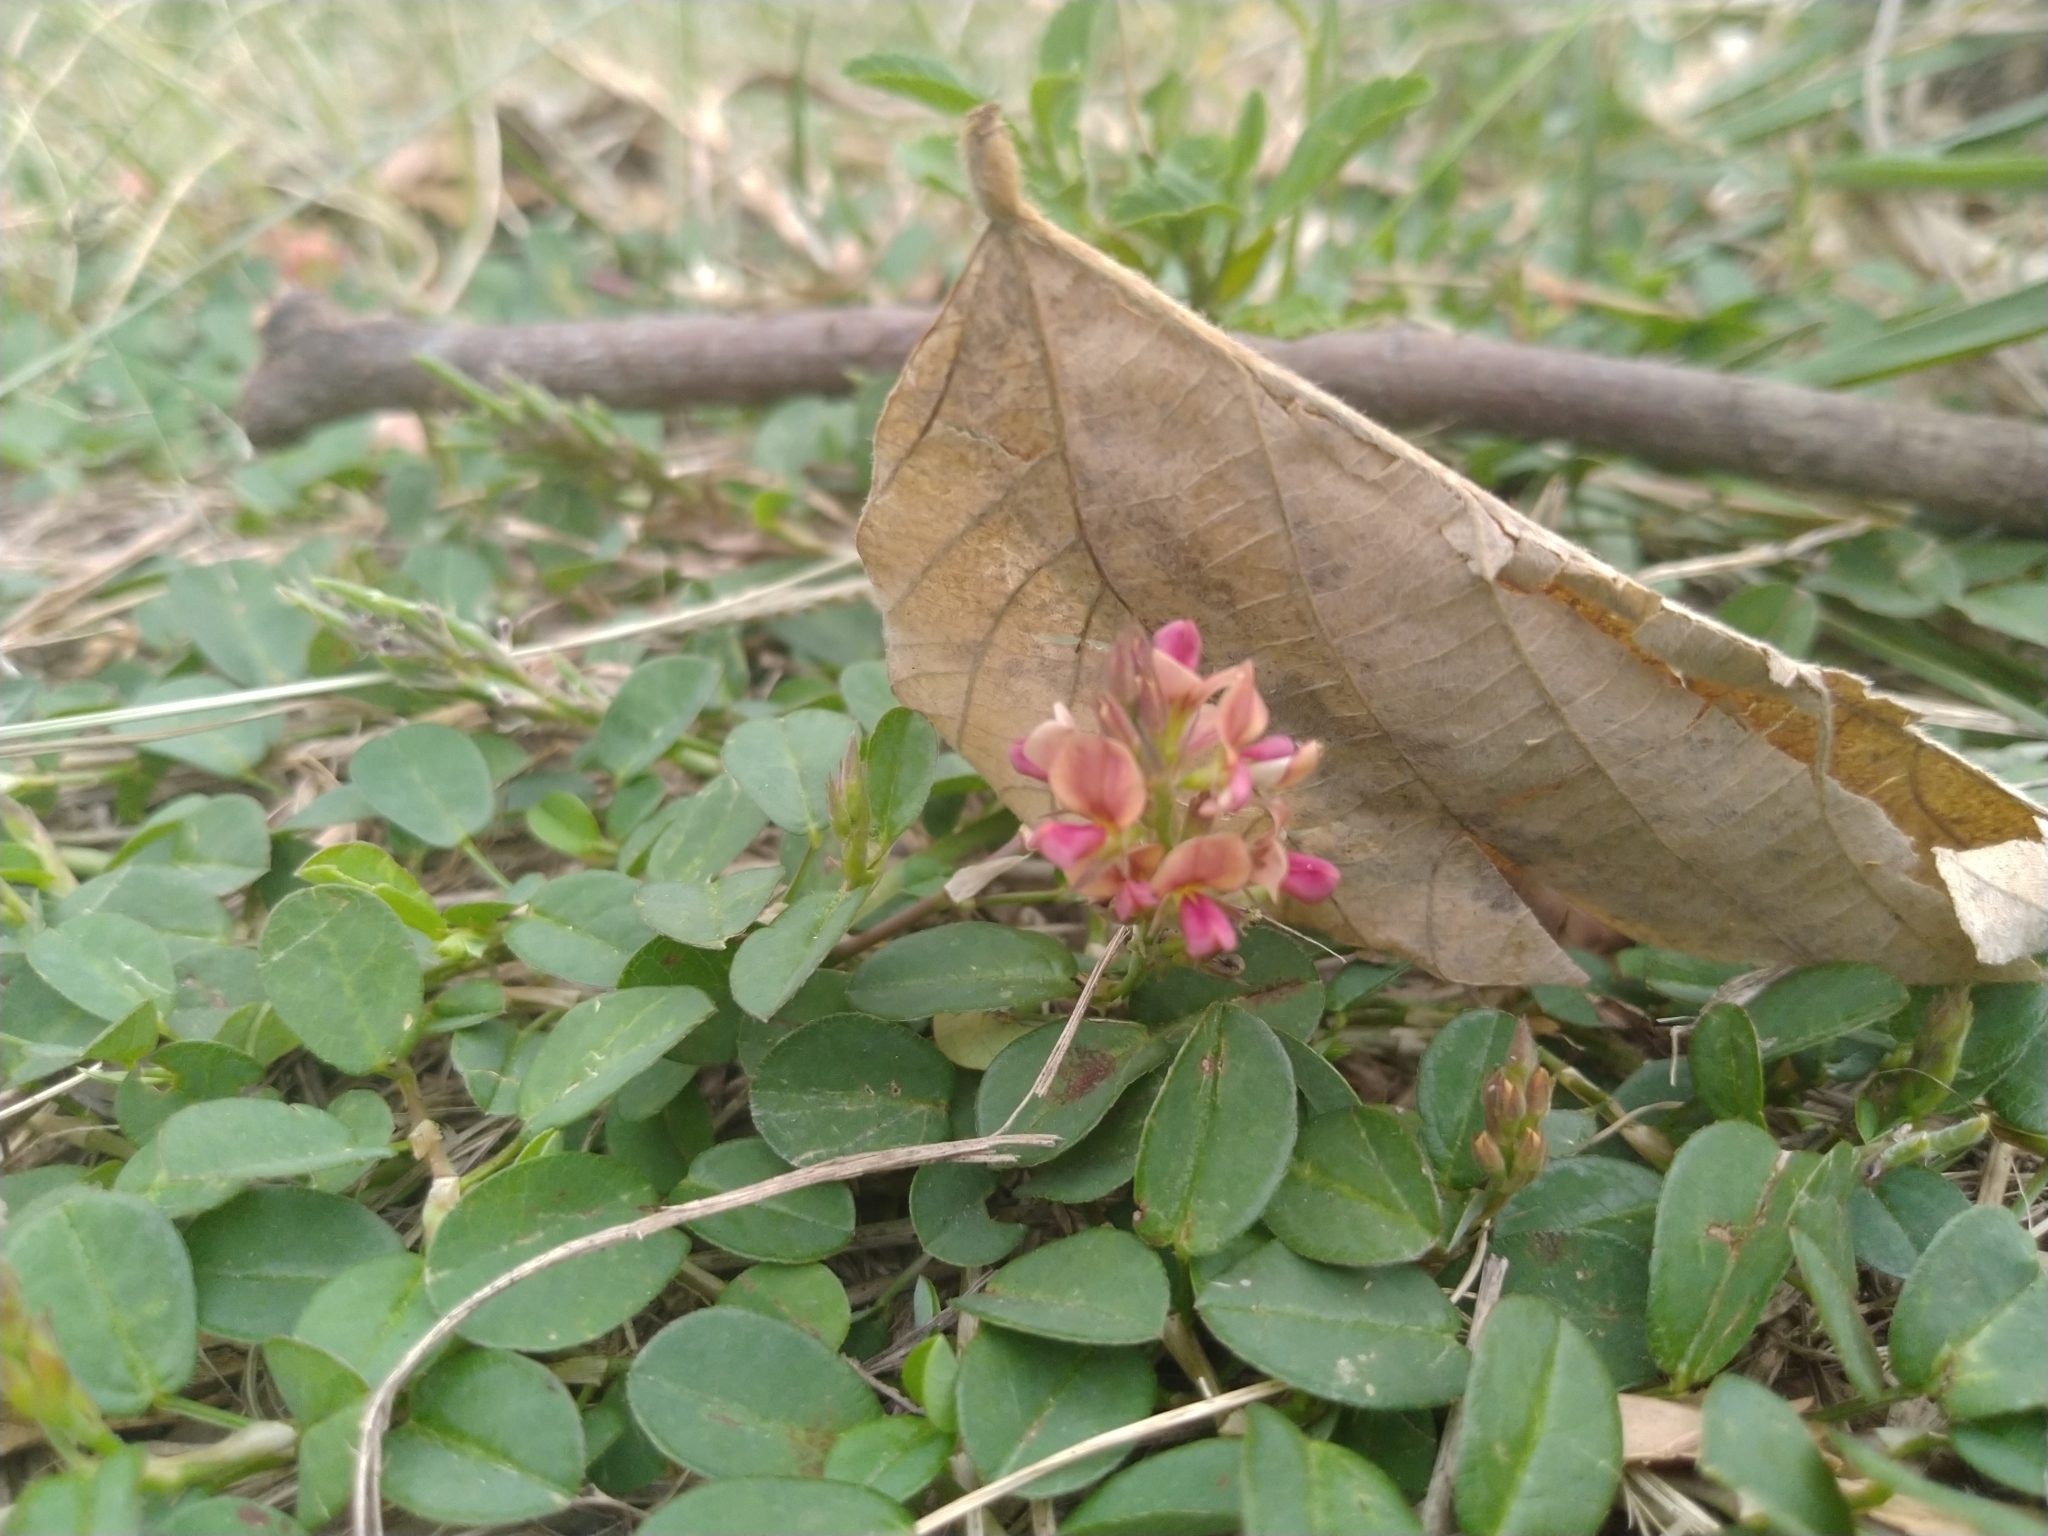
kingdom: Plantae
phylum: Tracheophyta
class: Magnoliopsida
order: Fabales
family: Fabaceae
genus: Alysicarpus
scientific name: Alysicarpus vaginalis
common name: White moneywort
